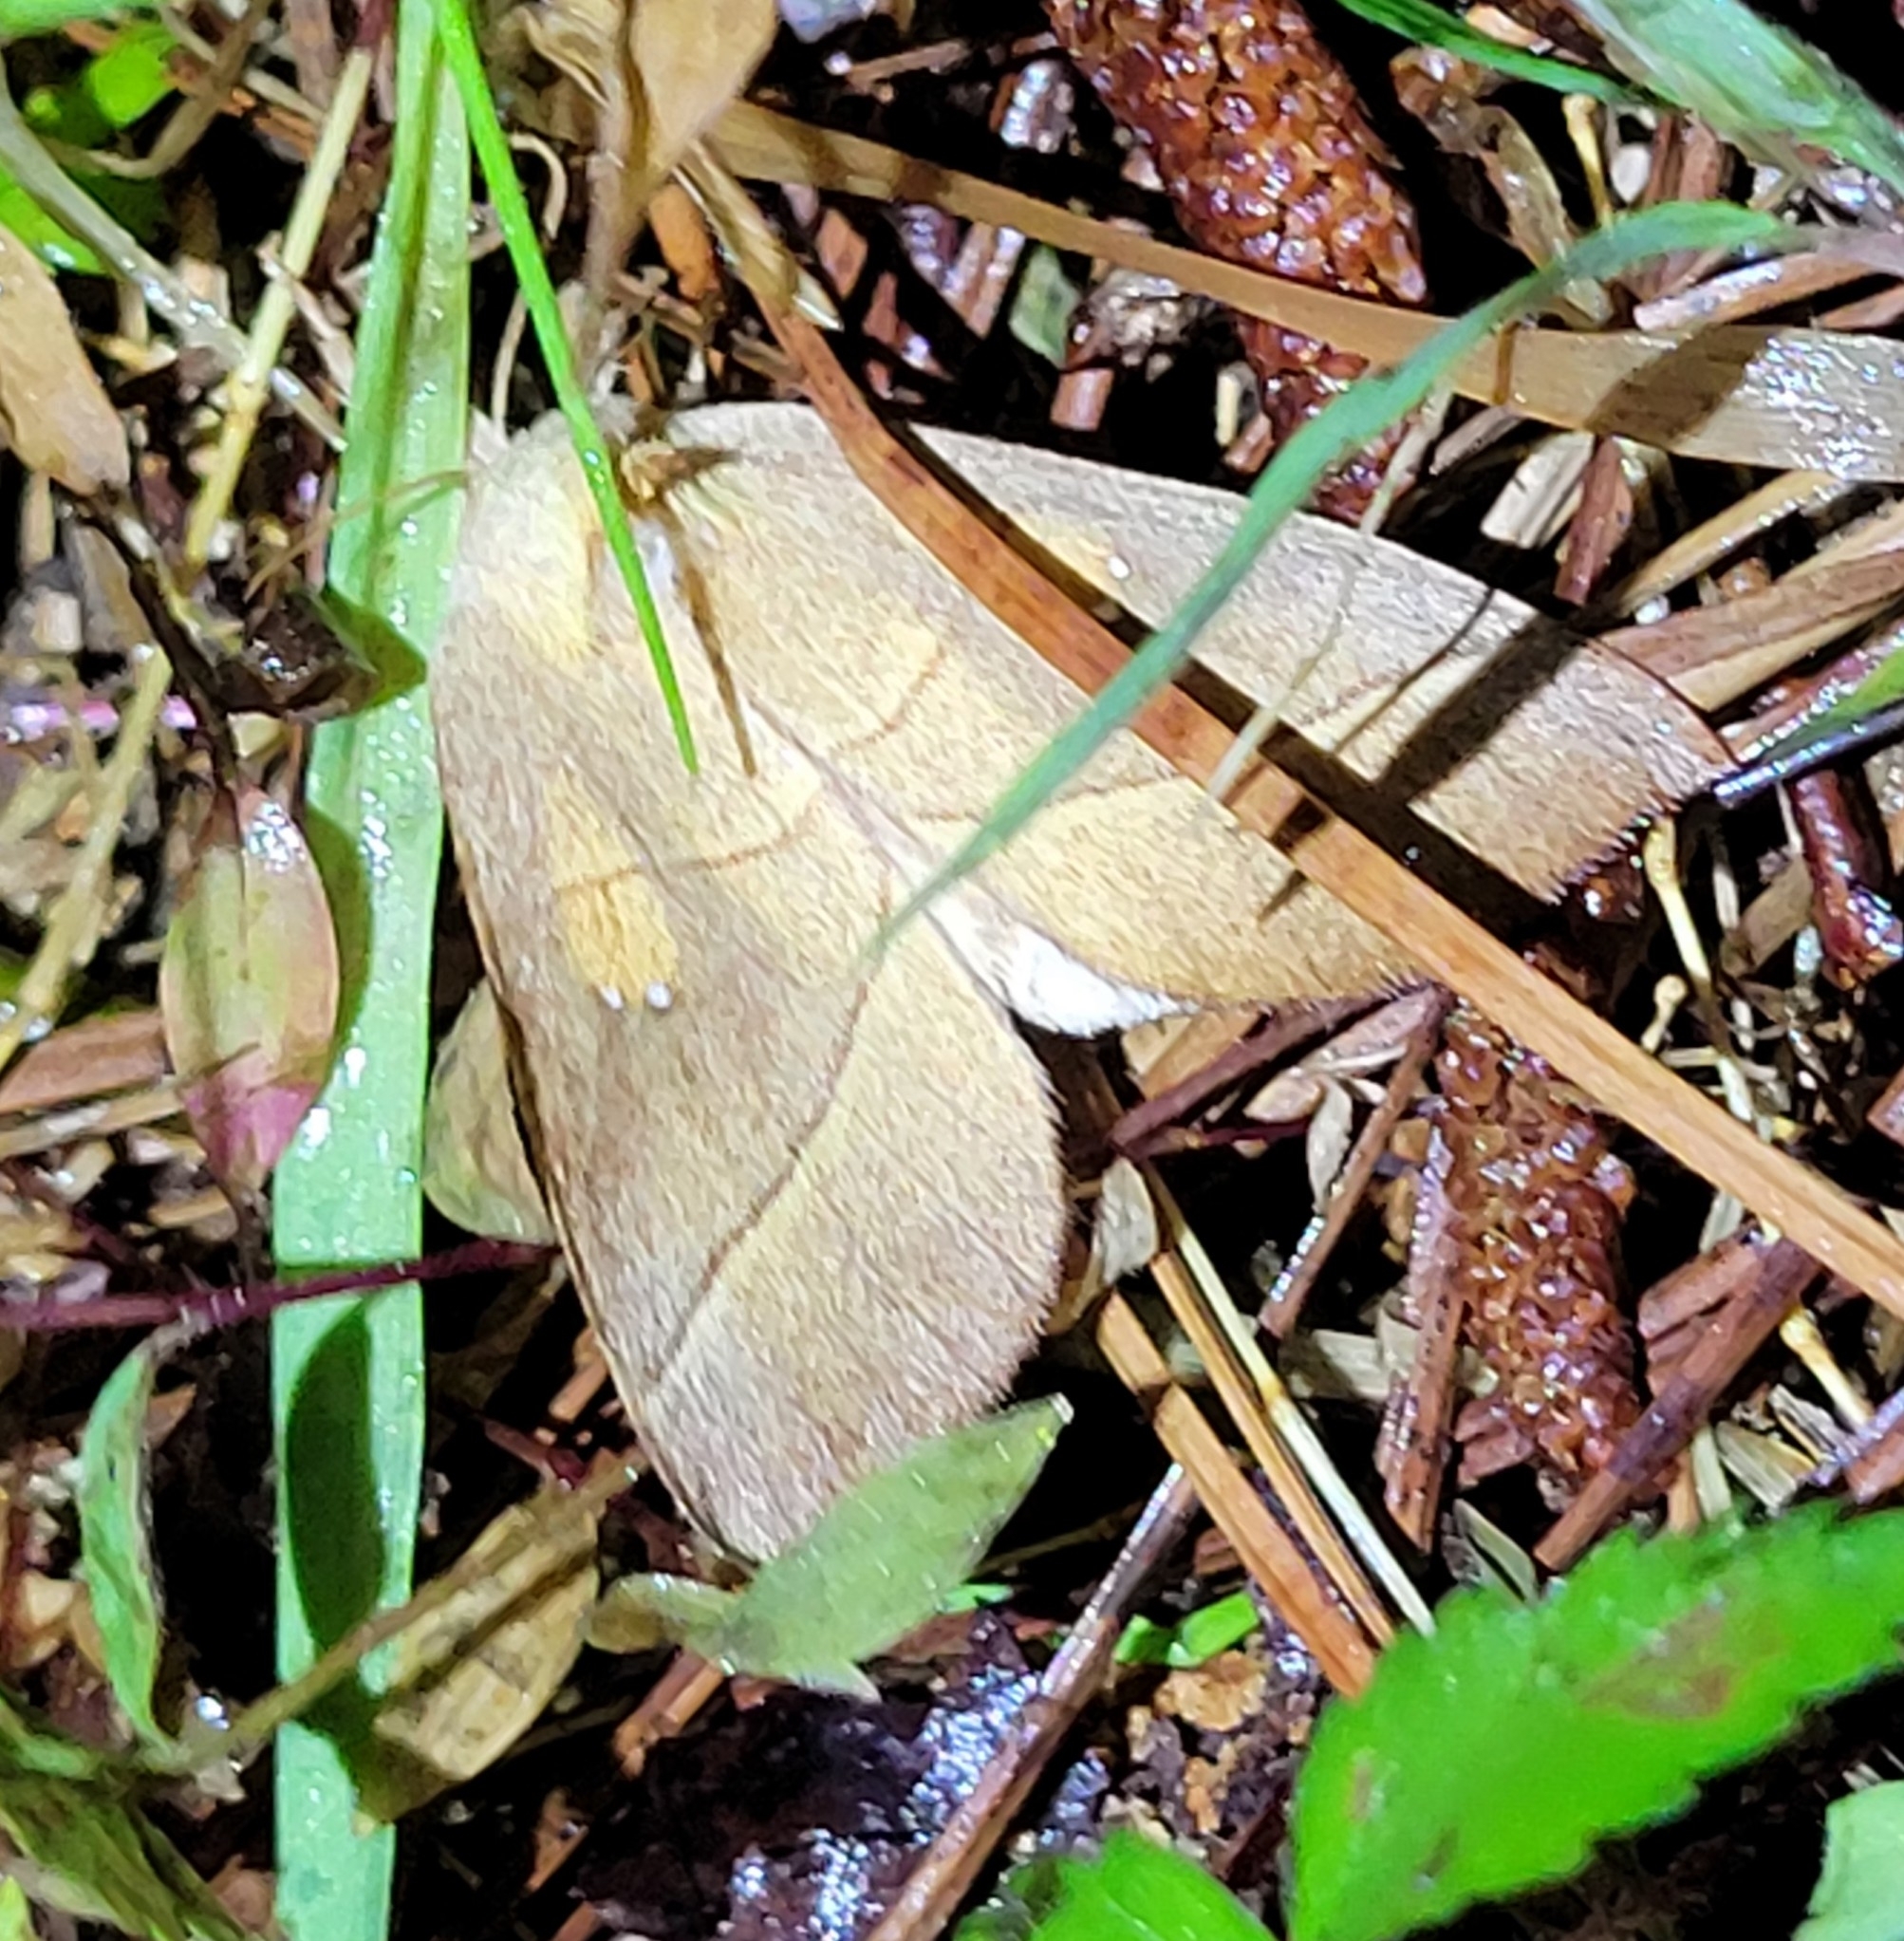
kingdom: Animalia
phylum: Arthropoda
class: Insecta
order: Lepidoptera
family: Notodontidae
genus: Nadata
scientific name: Nadata gibbosa
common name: White-dotted prominent
